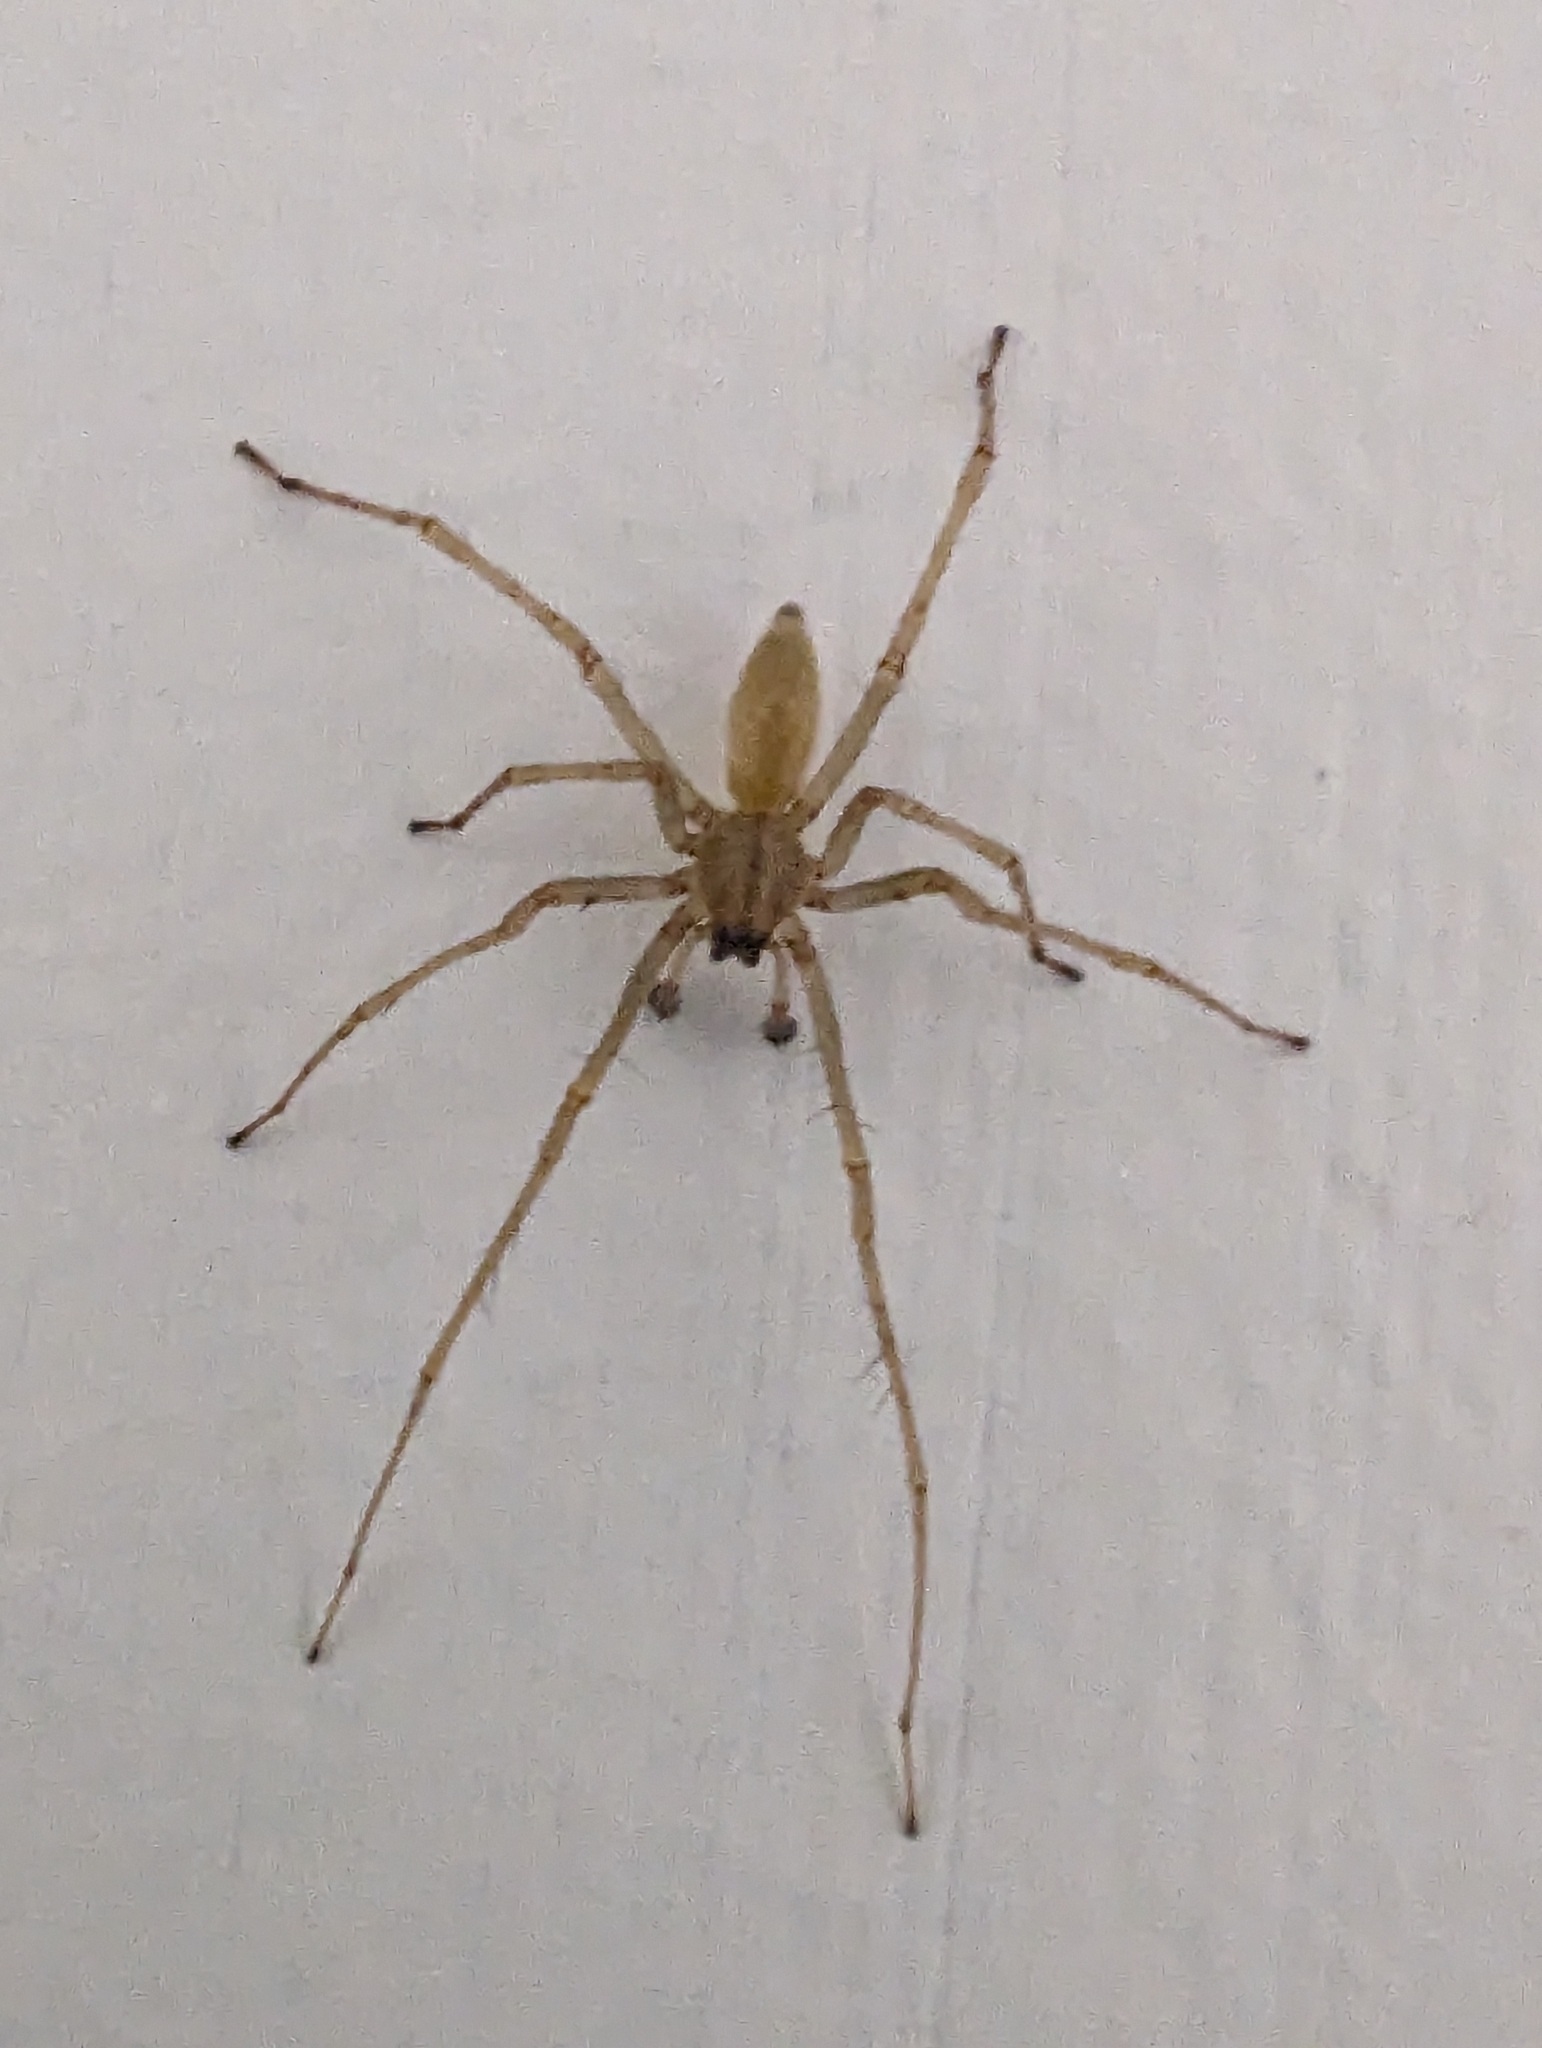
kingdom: Animalia
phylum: Arthropoda
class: Arachnida
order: Araneae
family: Cheiracanthiidae
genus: Cheiracanthium
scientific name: Cheiracanthium mildei
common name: Northern yellow sac spider
